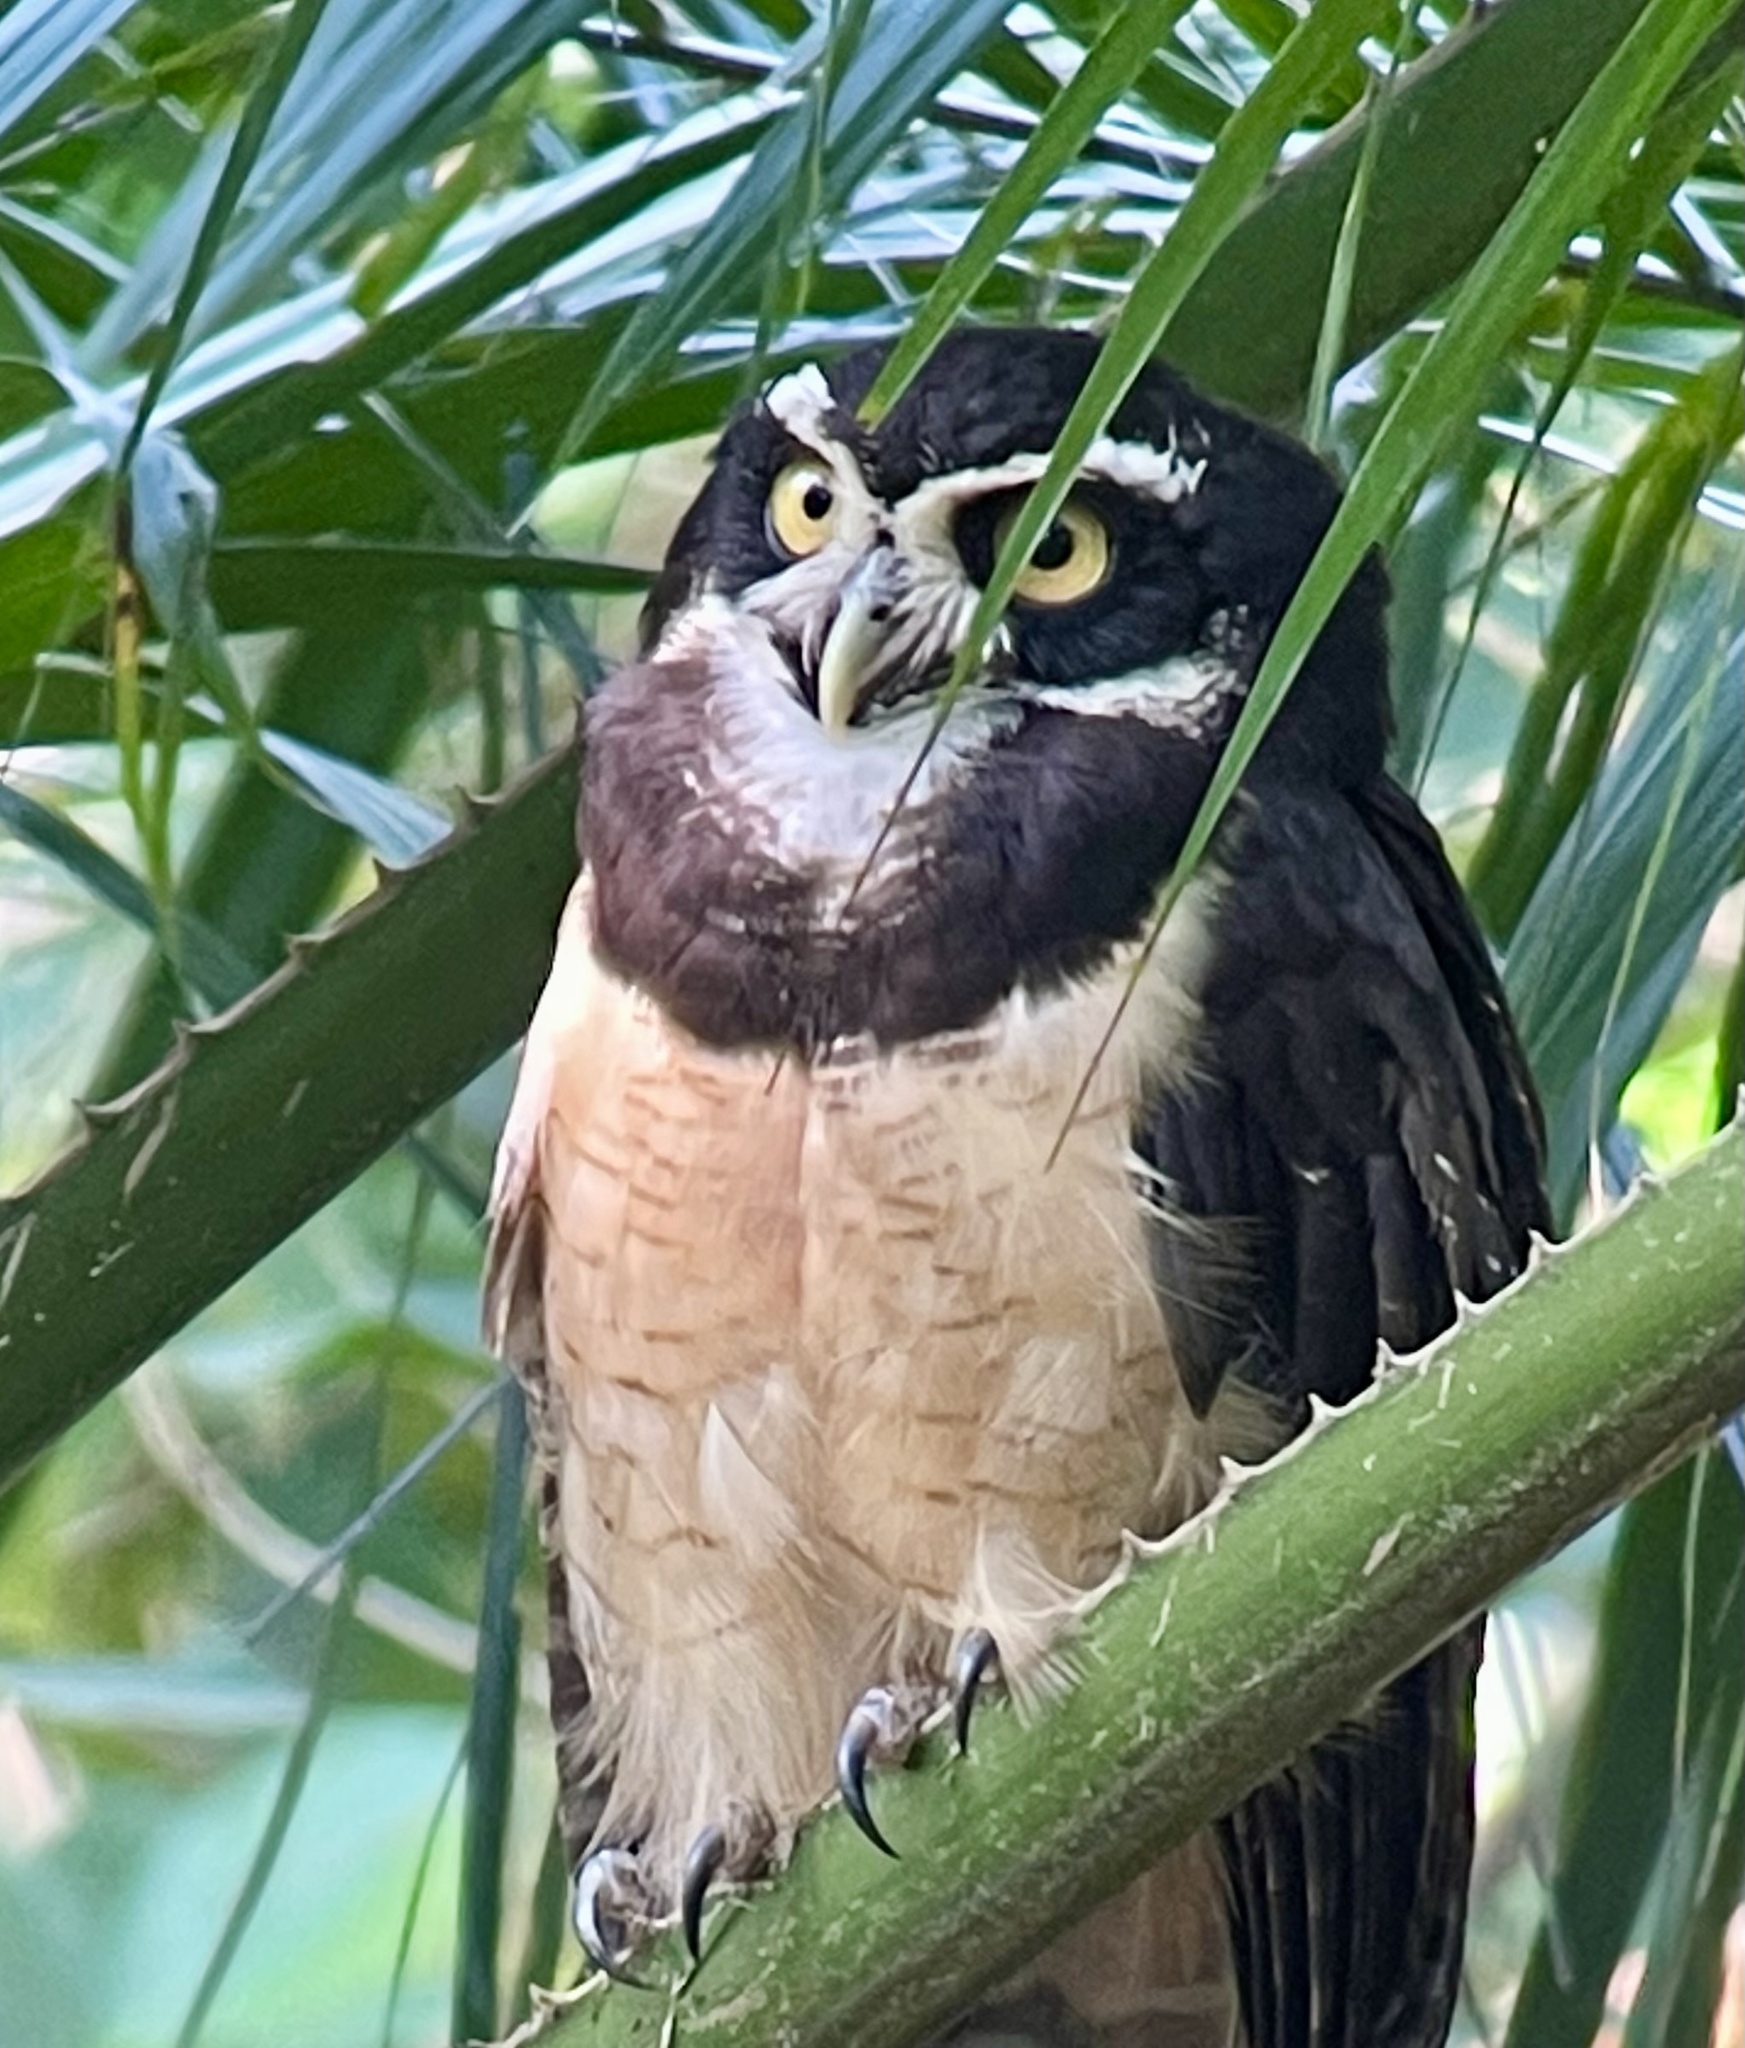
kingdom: Animalia
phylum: Chordata
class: Aves
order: Strigiformes
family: Strigidae
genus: Pulsatrix
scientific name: Pulsatrix perspicillata
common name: Spectacled owl
